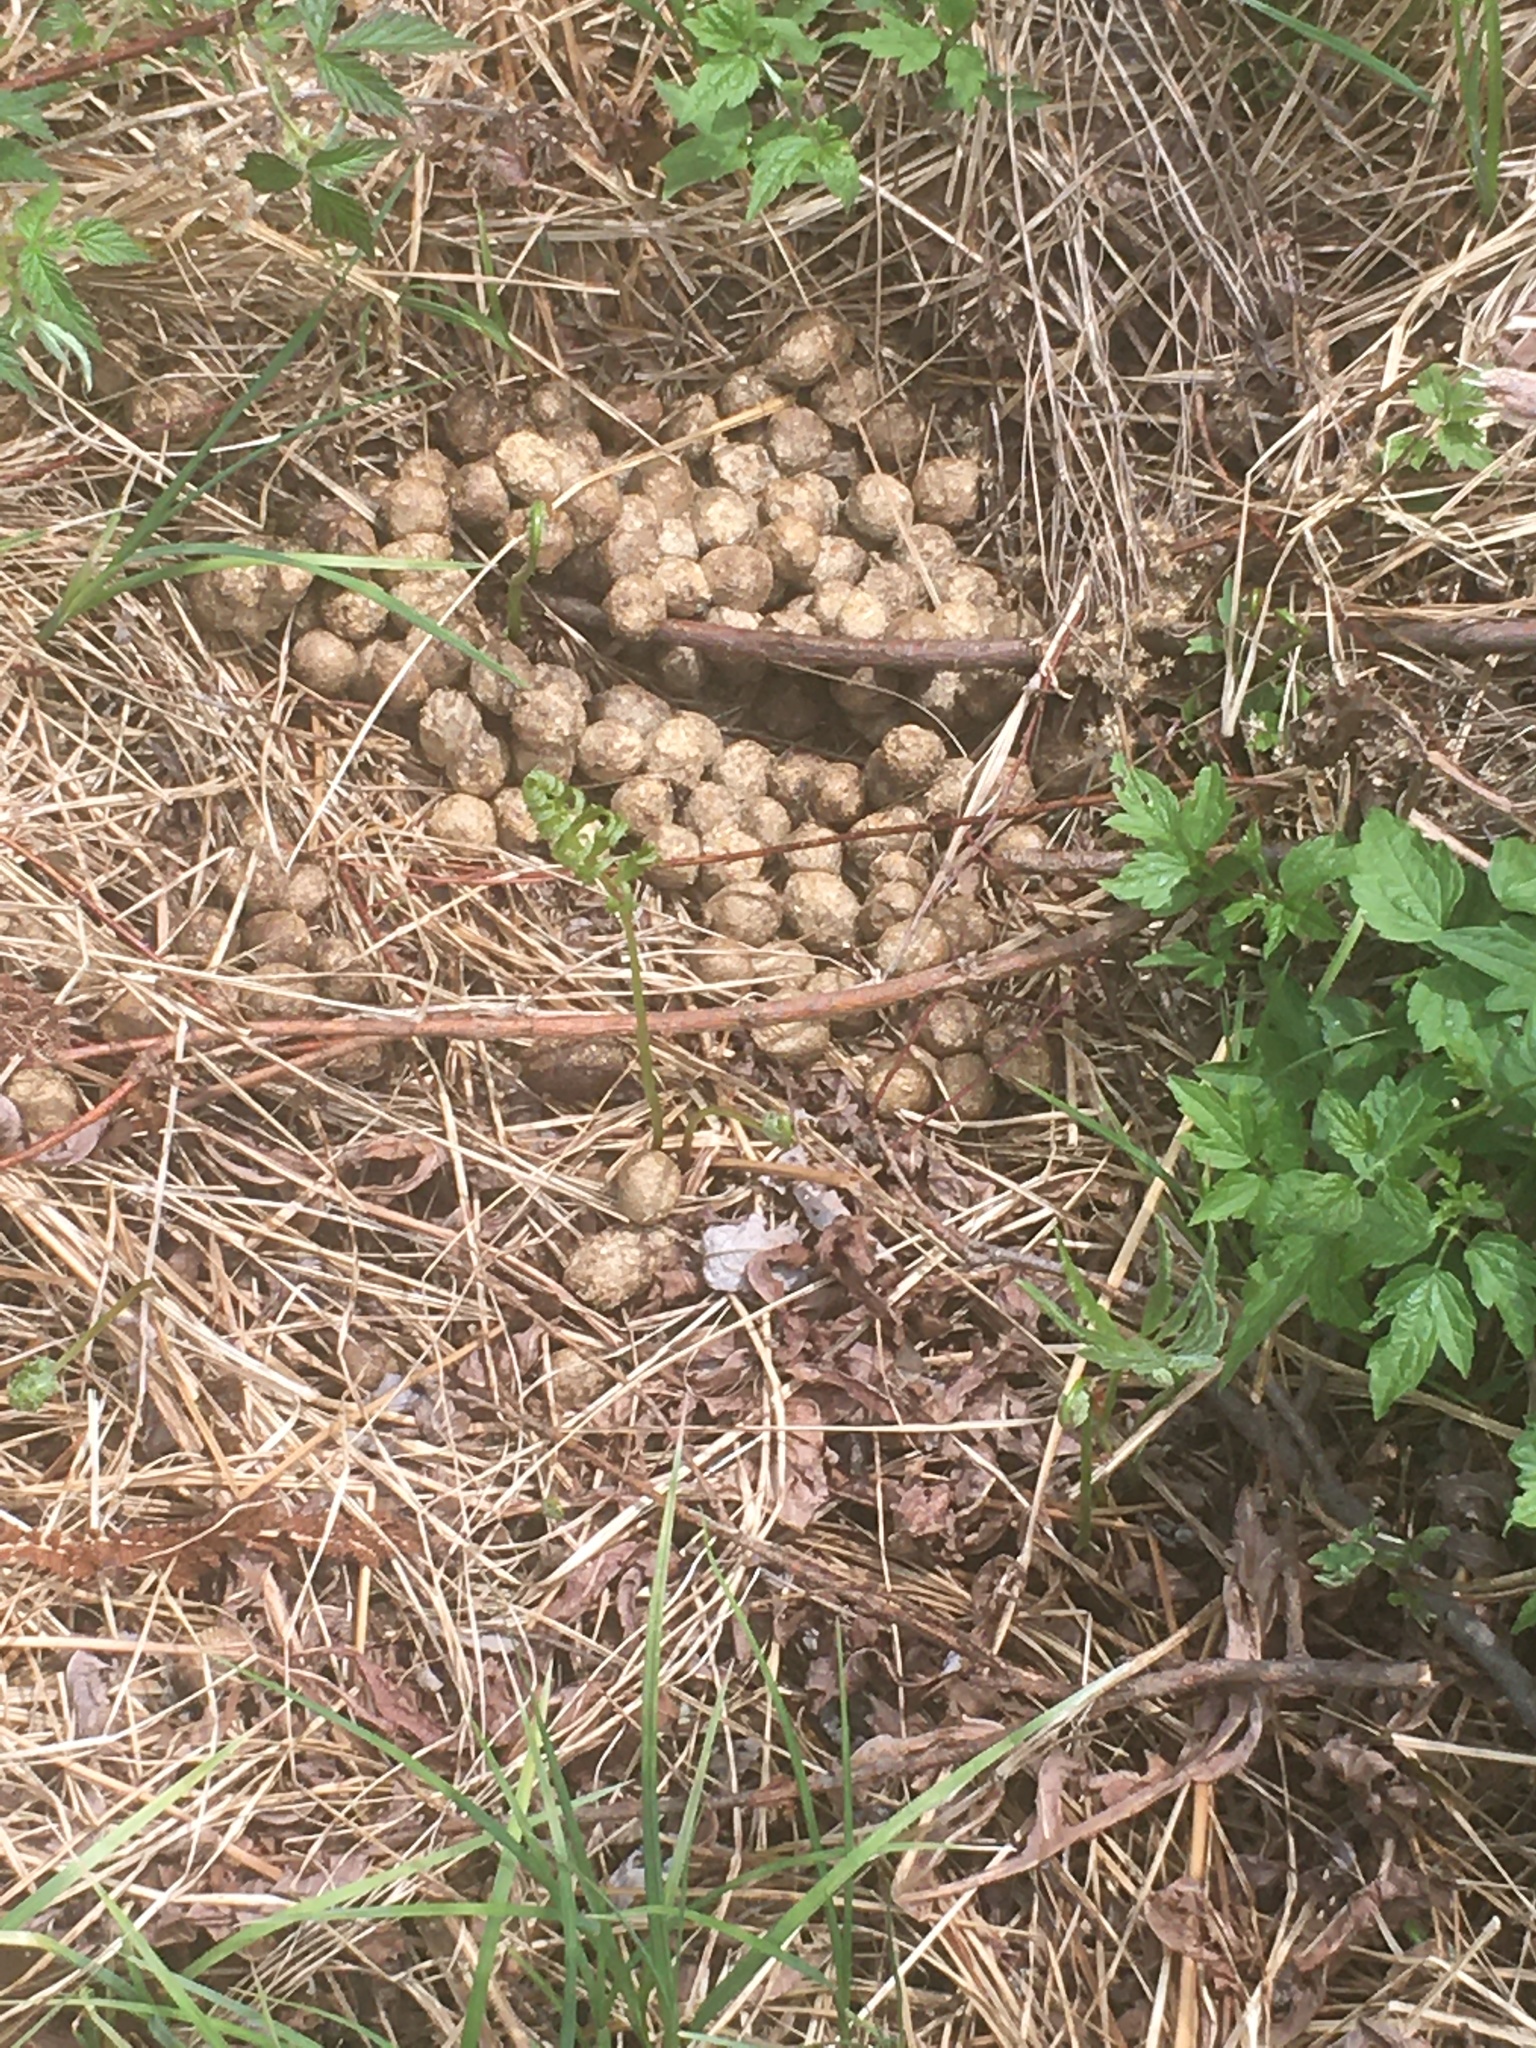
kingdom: Animalia
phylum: Chordata
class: Mammalia
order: Artiodactyla
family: Cervidae
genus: Alces
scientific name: Alces alces
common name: Moose
